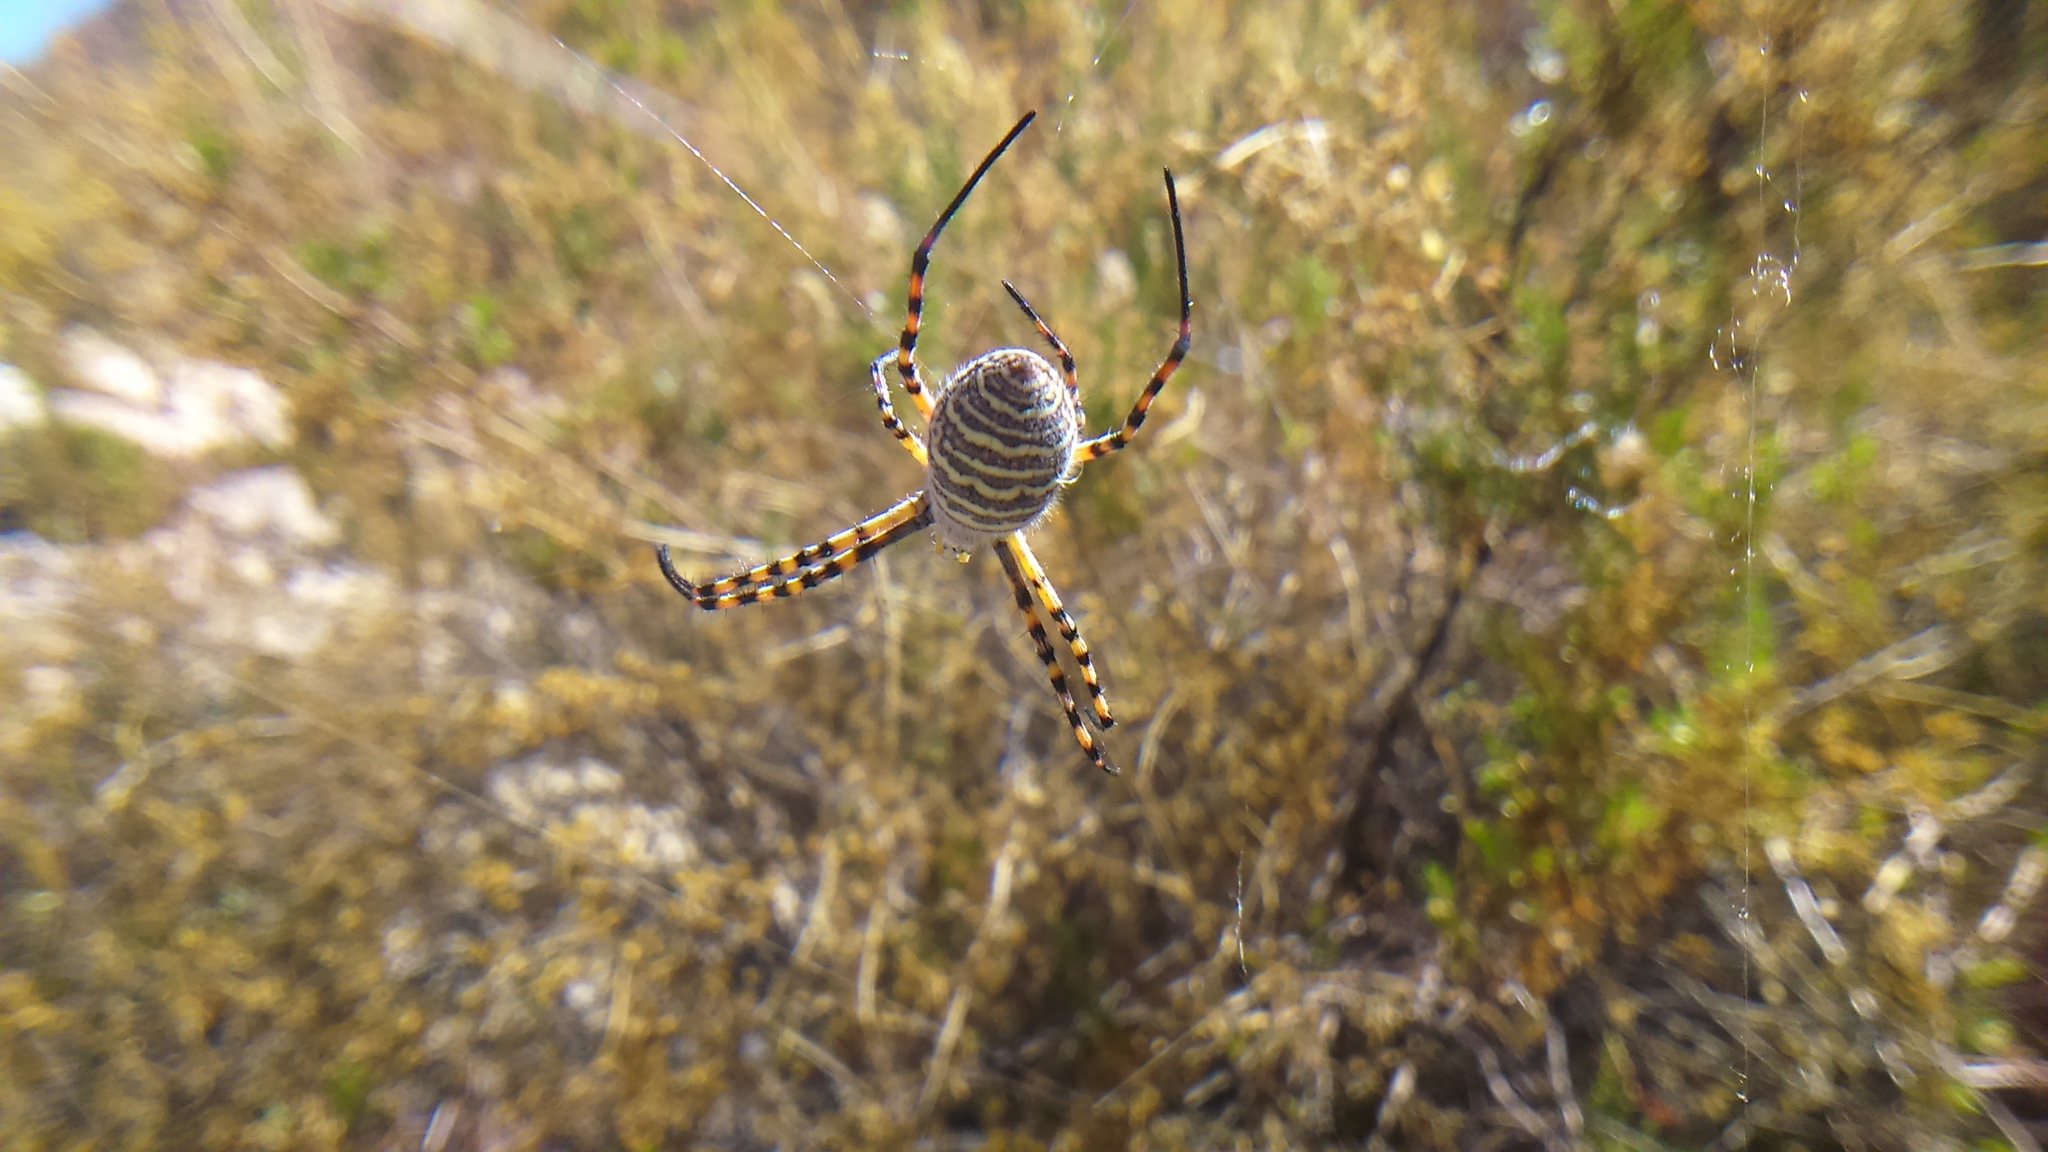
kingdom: Animalia
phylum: Arthropoda
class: Arachnida
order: Araneae
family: Araneidae
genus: Argiope
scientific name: Argiope trifasciata
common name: Banded garden spider
